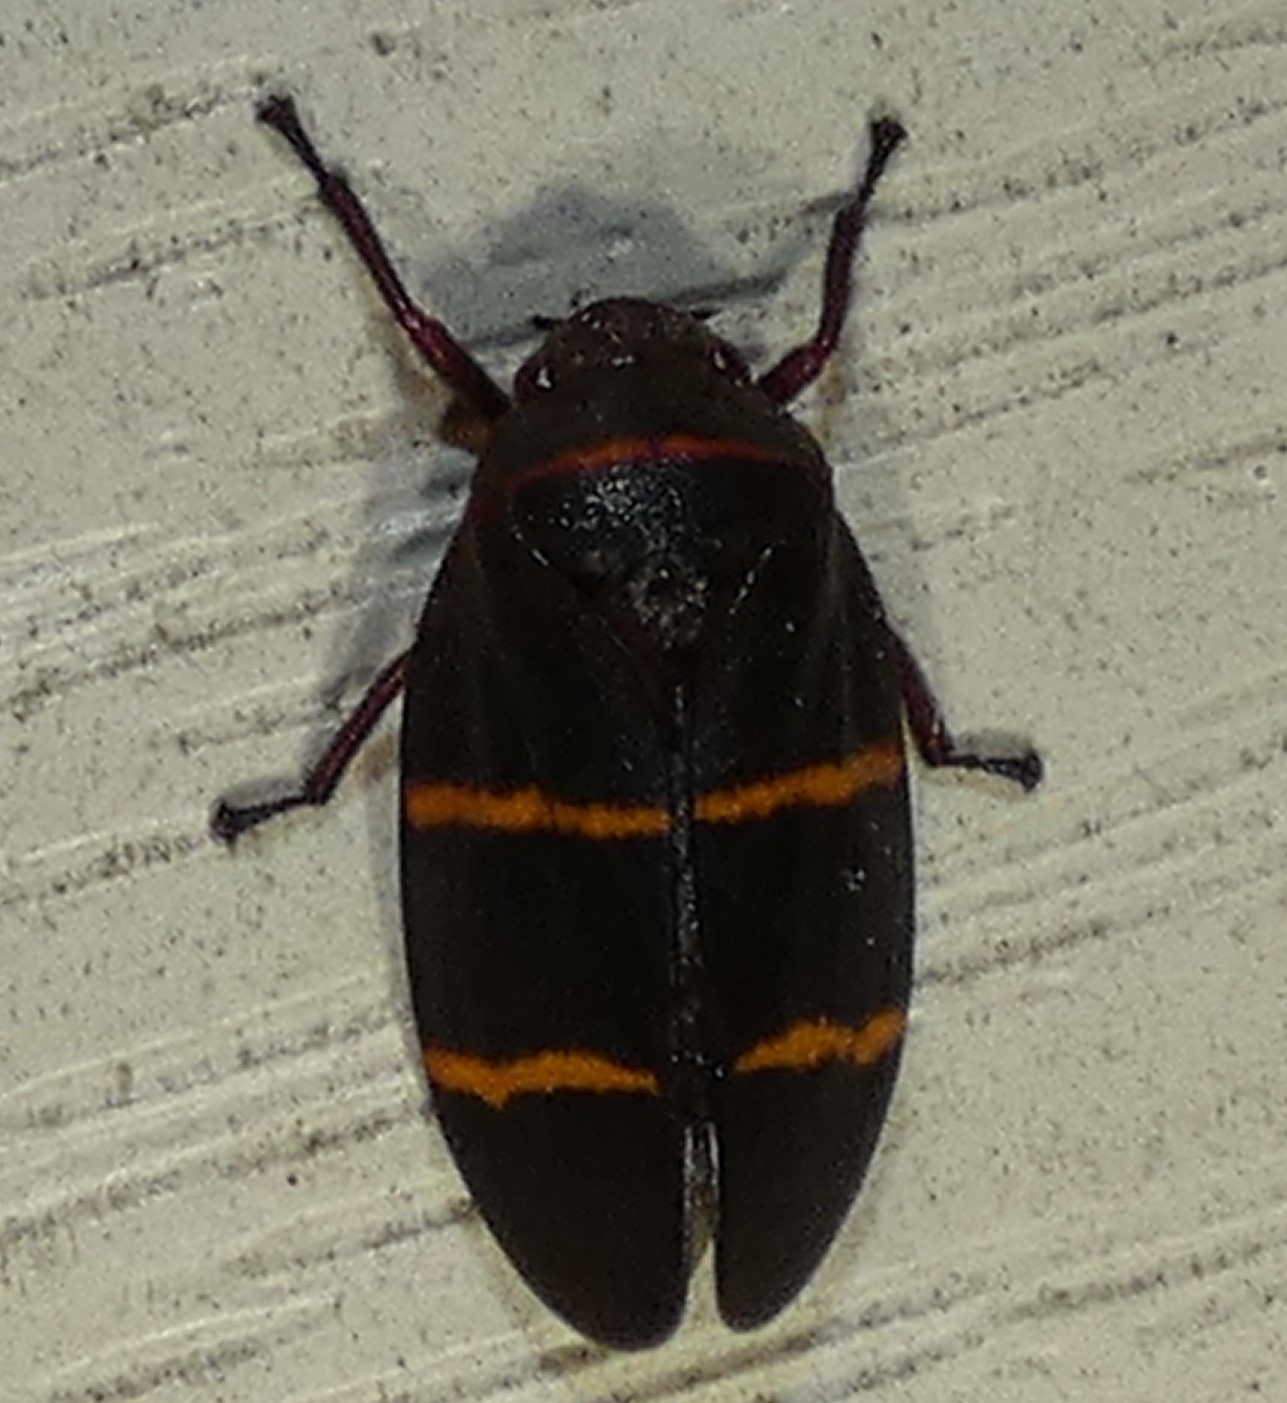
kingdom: Animalia
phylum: Arthropoda
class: Insecta
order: Hemiptera
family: Cercopidae
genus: Prosapia
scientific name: Prosapia bicincta
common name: Twolined spittlebug
